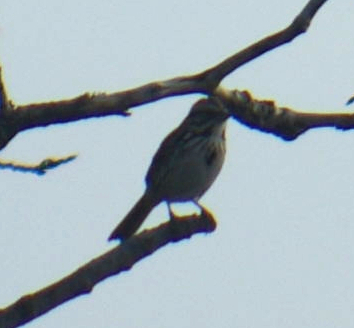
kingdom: Animalia
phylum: Chordata
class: Aves
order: Passeriformes
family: Passerellidae
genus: Melospiza
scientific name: Melospiza melodia
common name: Song sparrow
